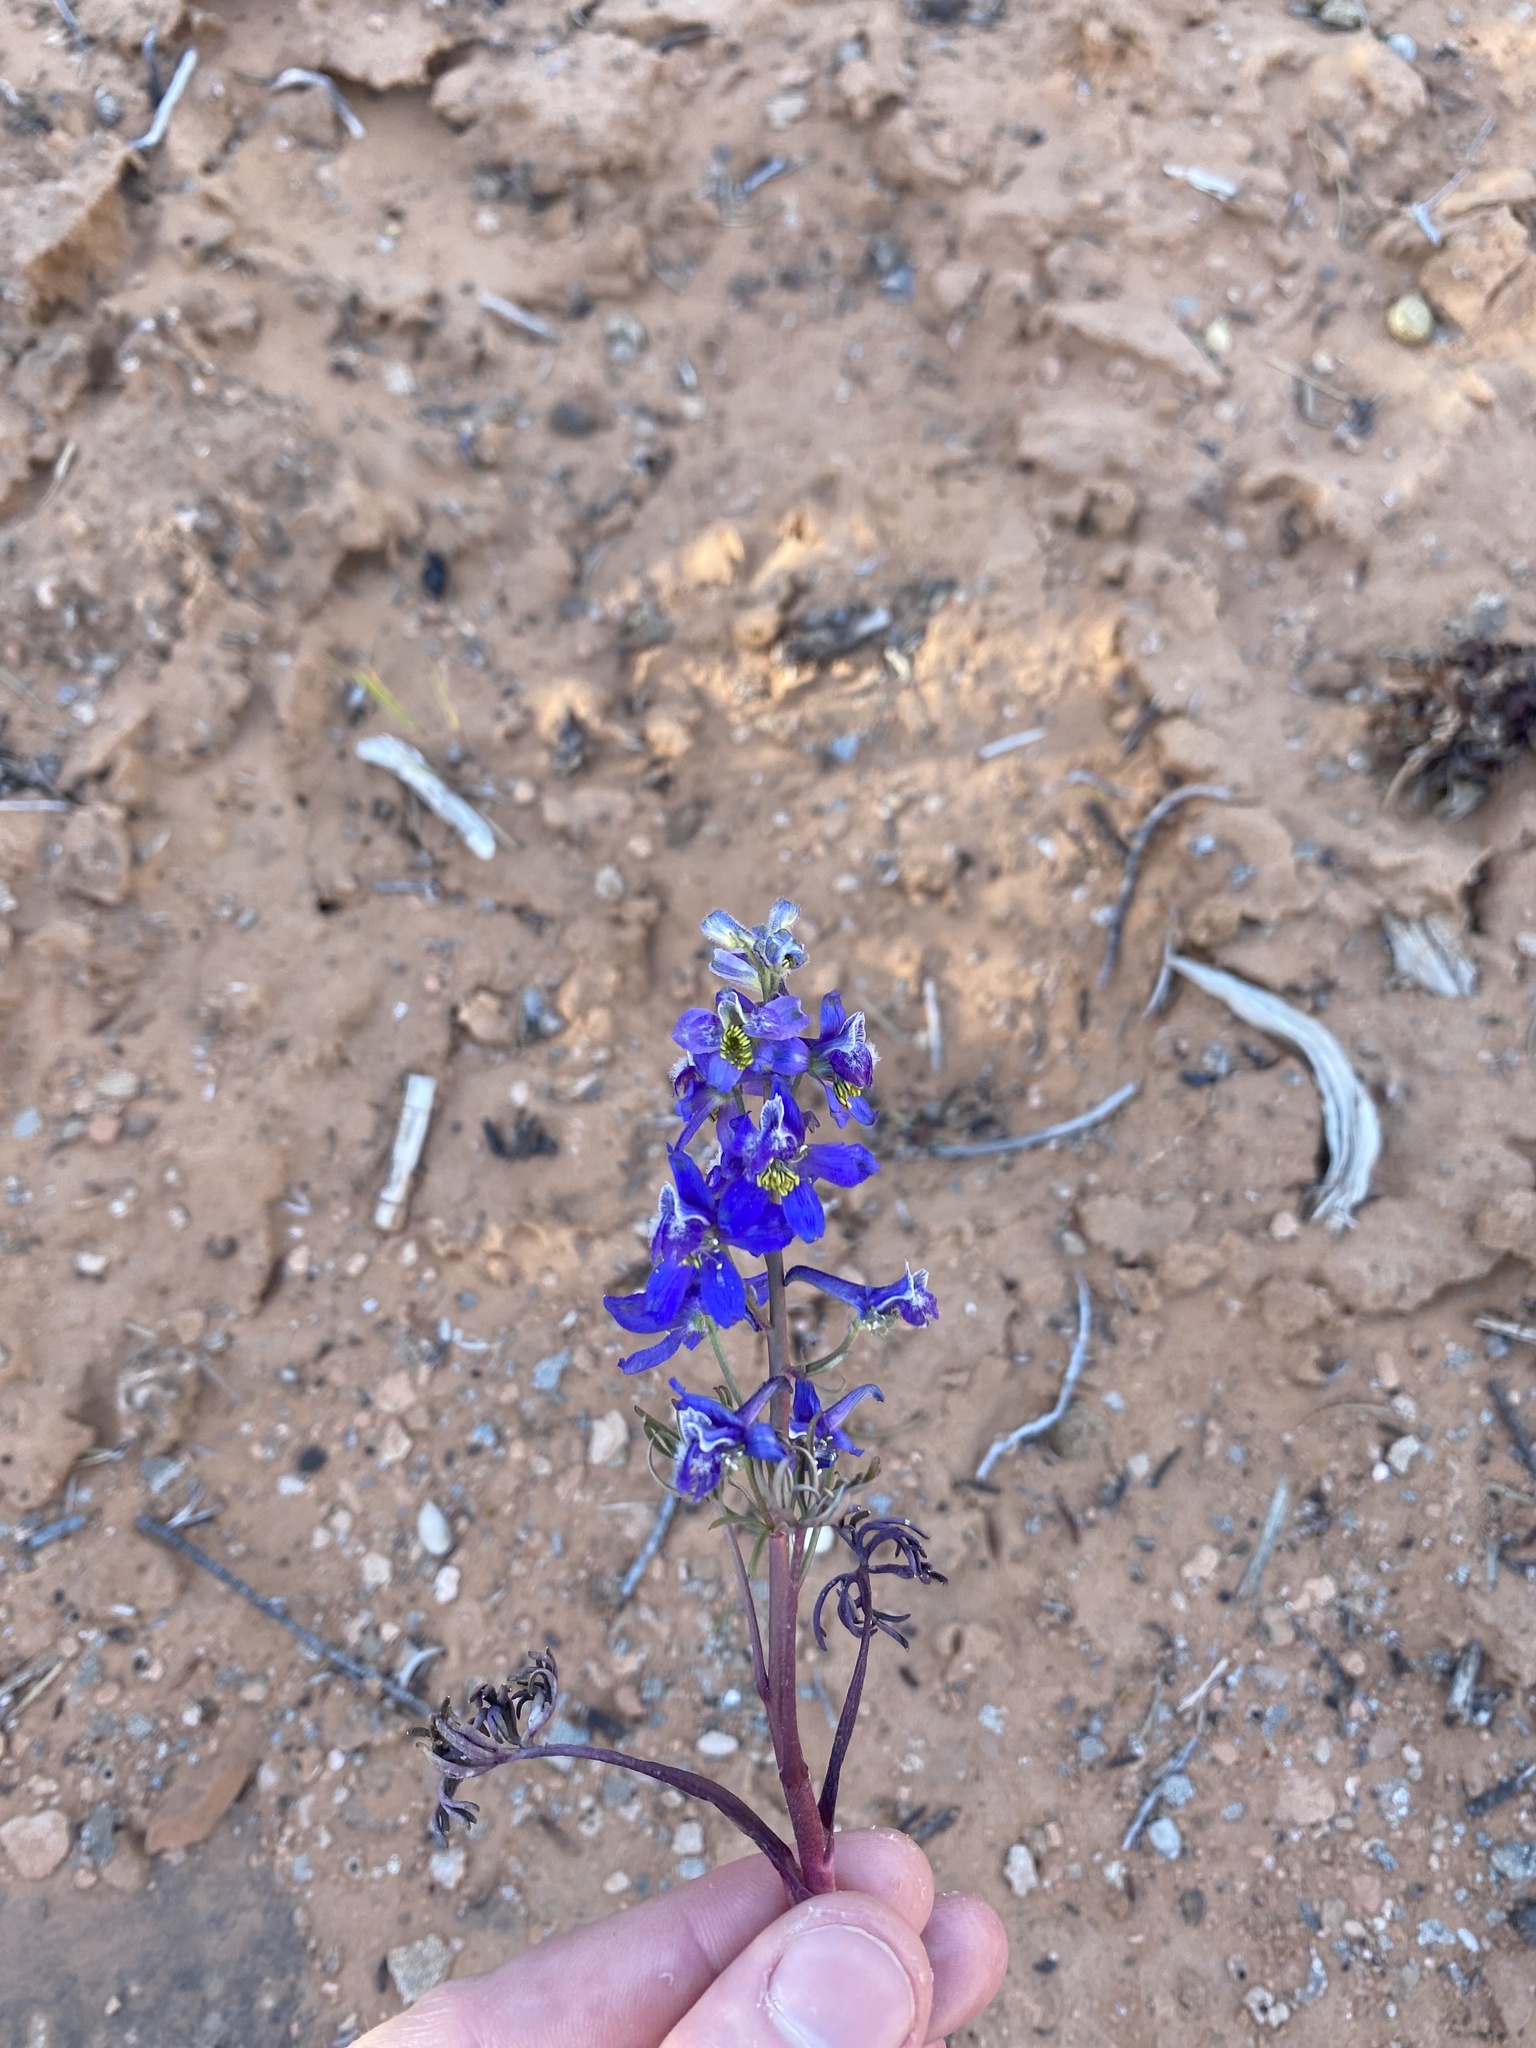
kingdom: Plantae
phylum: Tracheophyta
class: Magnoliopsida
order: Ranunculales
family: Ranunculaceae
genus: Delphinium
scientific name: Delphinium nuttallianum
